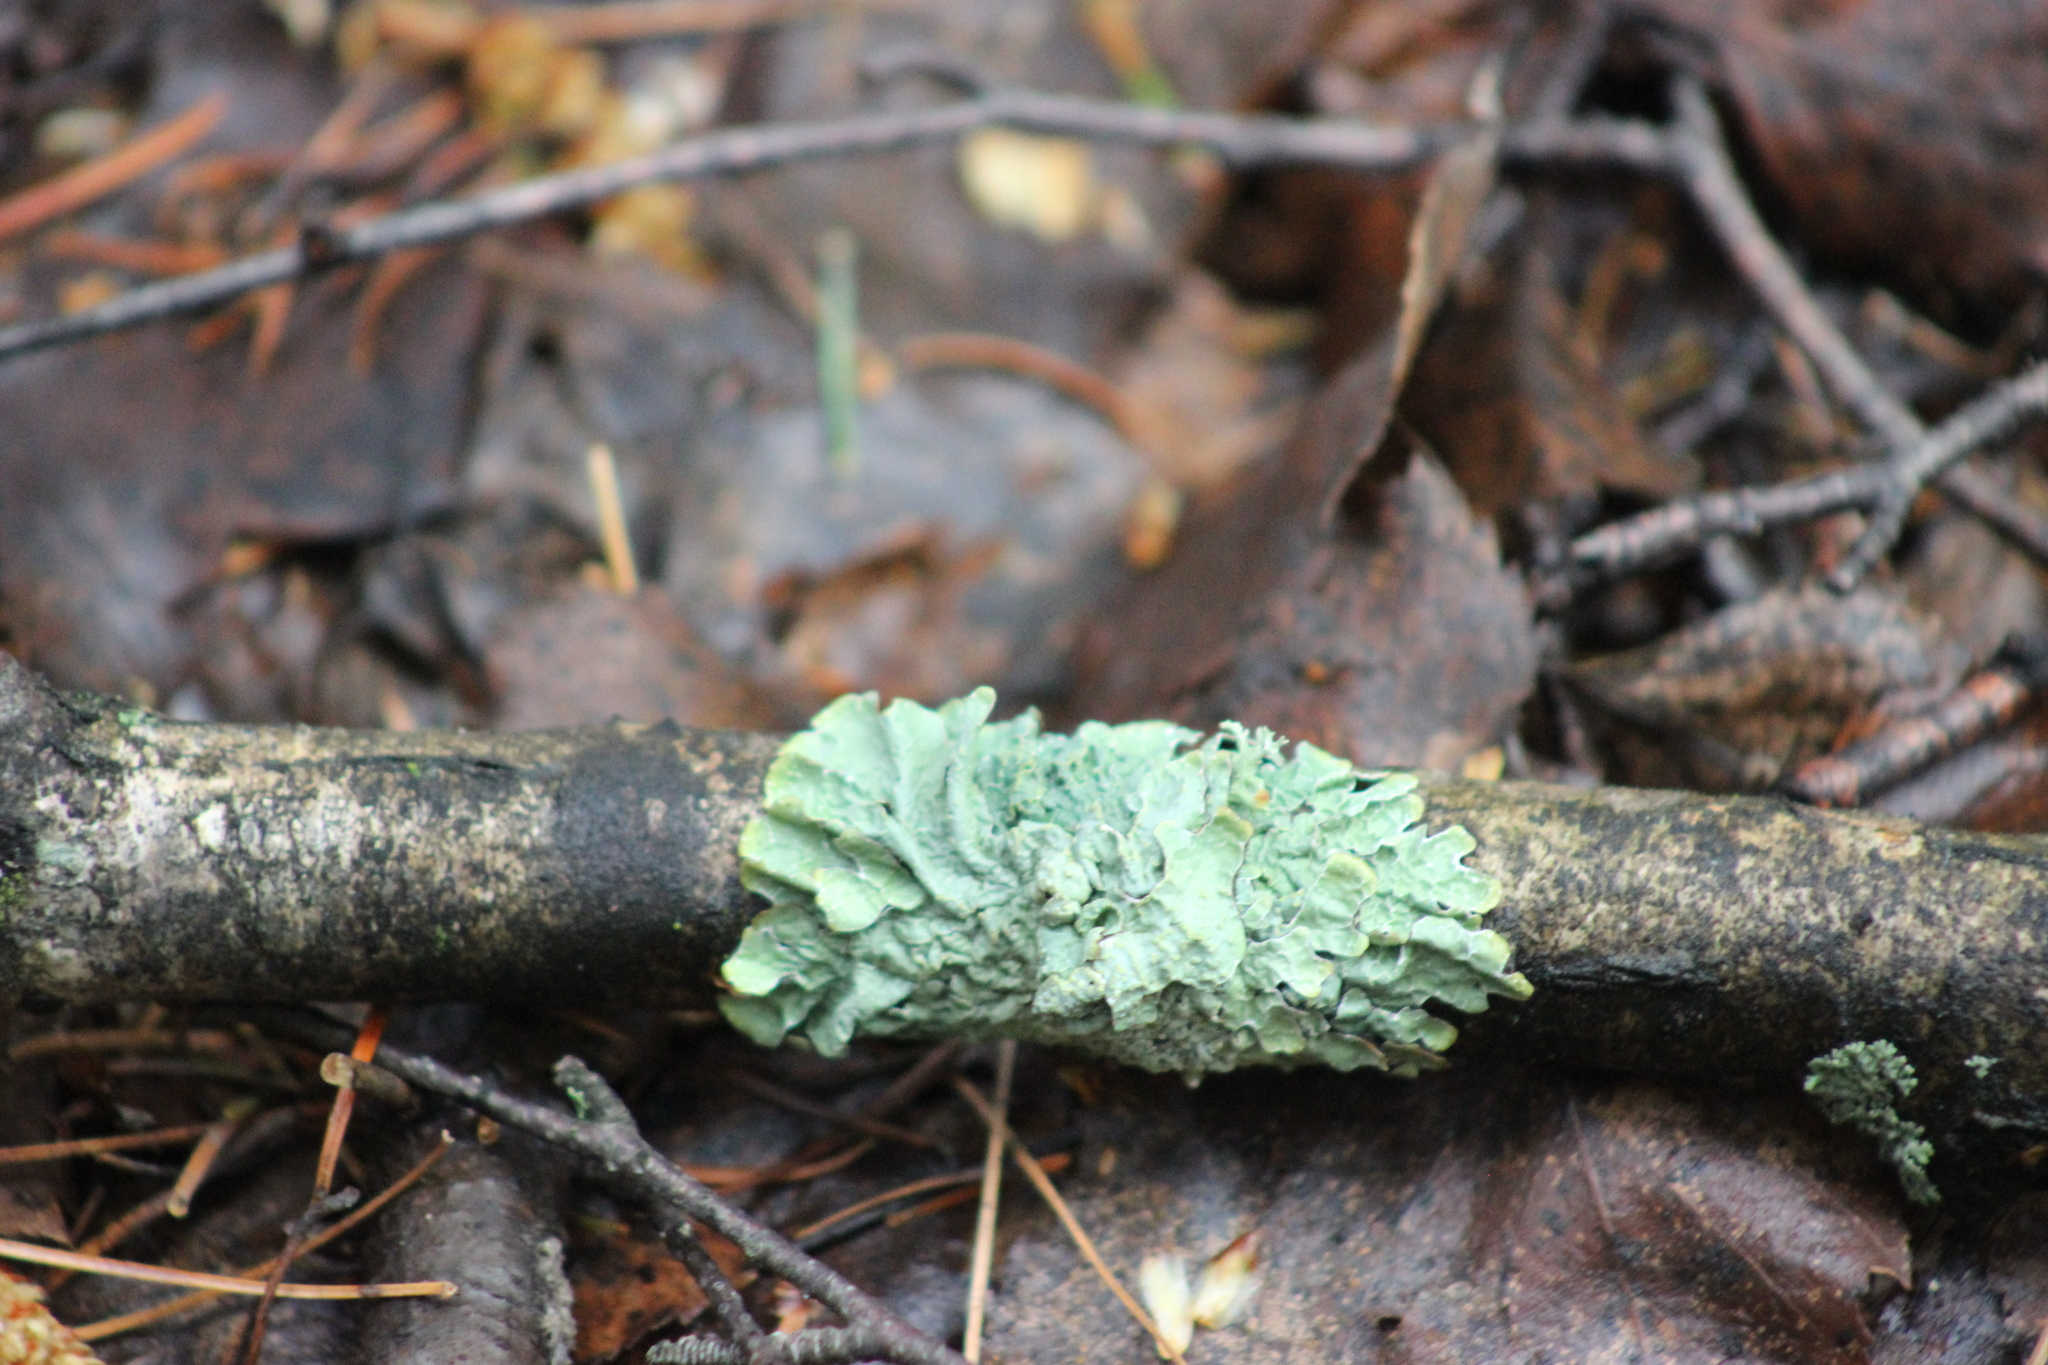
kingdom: Fungi
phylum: Ascomycota
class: Lecanoromycetes
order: Lecanorales
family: Parmeliaceae
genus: Parmelia
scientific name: Parmelia sulcata
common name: Netted shield lichen
